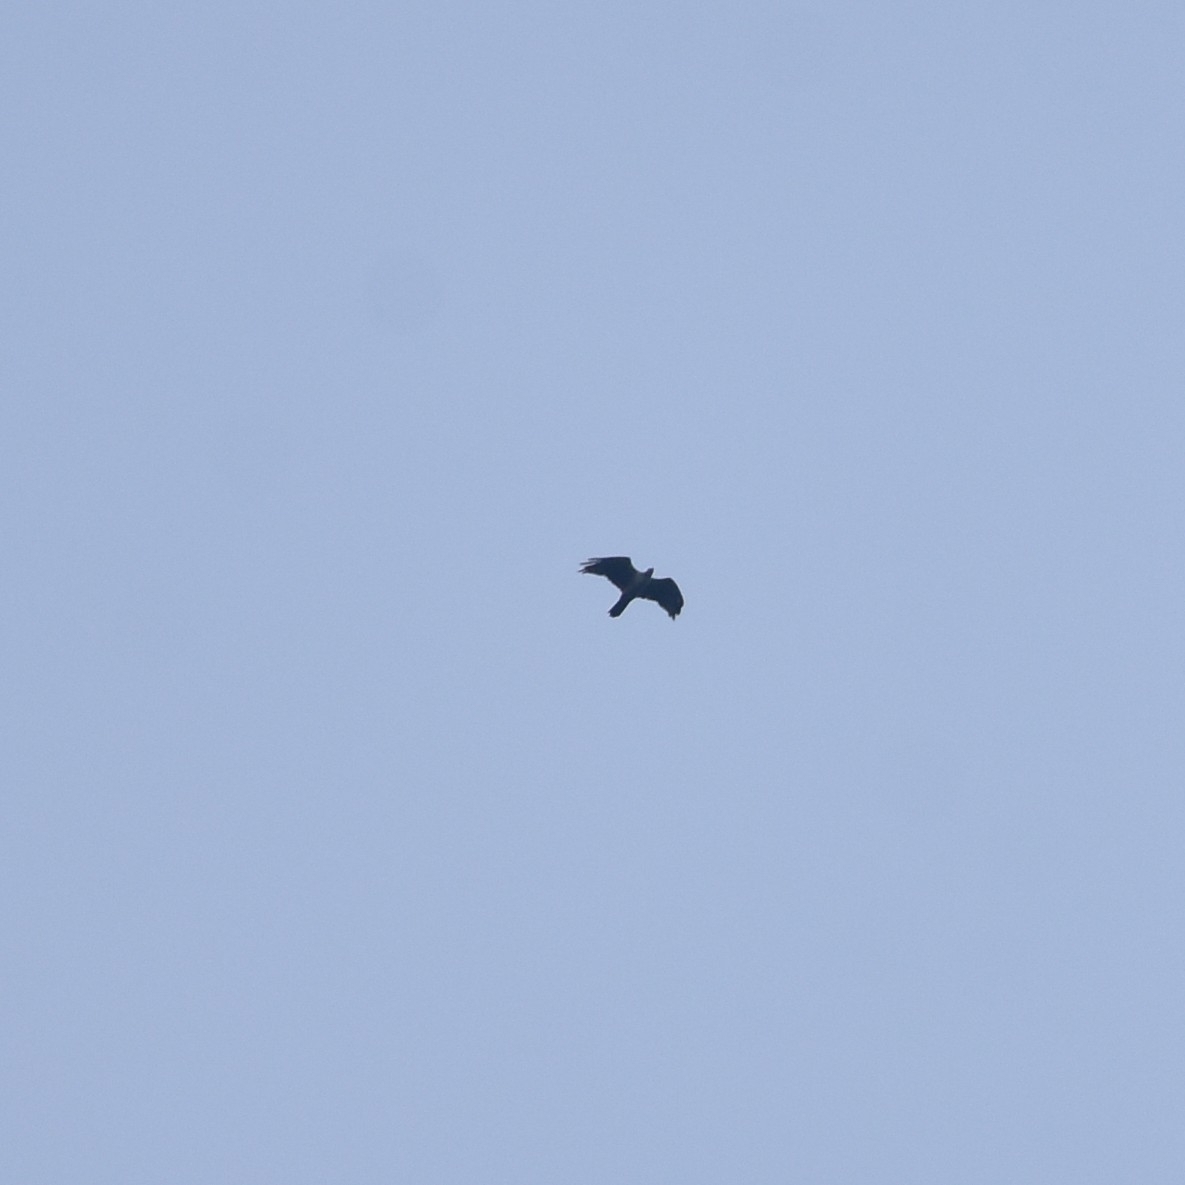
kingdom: Animalia
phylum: Chordata
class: Aves
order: Accipitriformes
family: Accipitridae
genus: Pernis
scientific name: Pernis ptilorhynchus
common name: Crested honey buzzard
